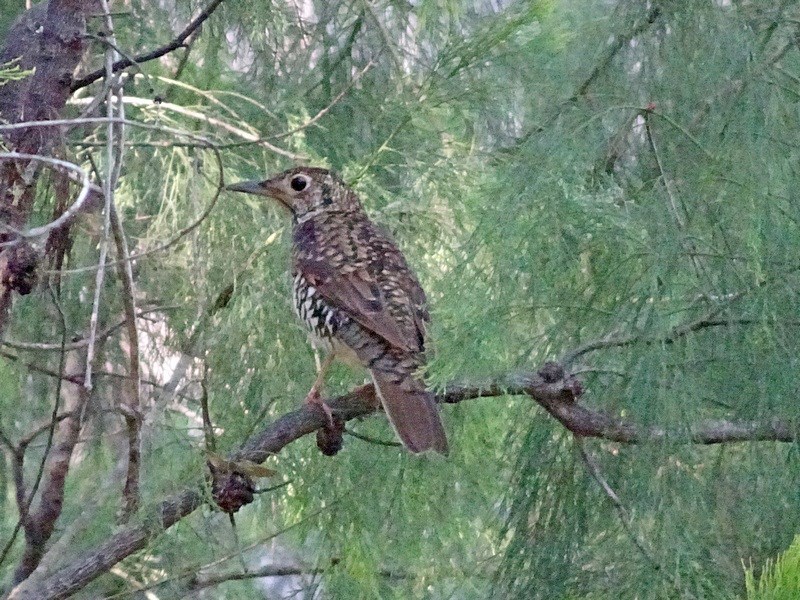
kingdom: Animalia
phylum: Chordata
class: Aves
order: Passeriformes
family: Turdidae
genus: Zoothera
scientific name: Zoothera lunulata
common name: Bassian thrush
